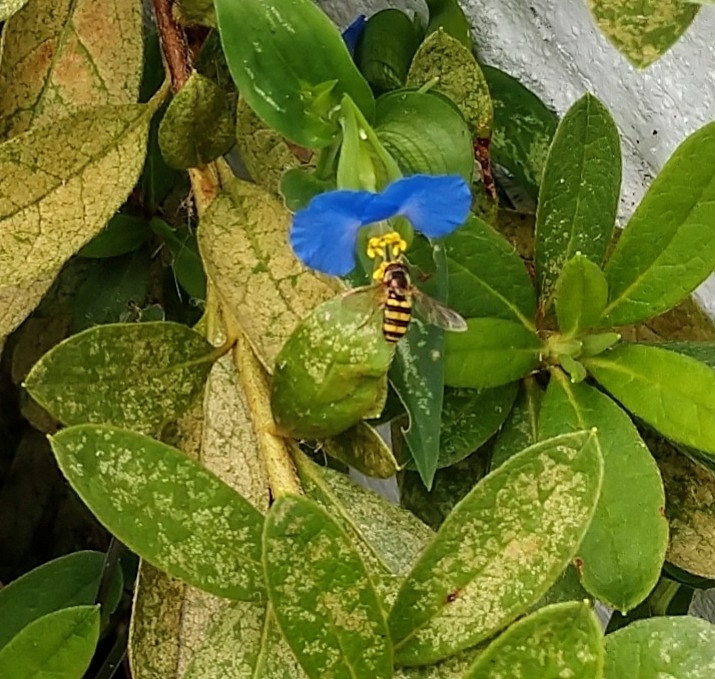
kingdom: Animalia
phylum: Arthropoda
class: Insecta
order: Diptera
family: Syrphidae
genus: Eupeodes
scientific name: Eupeodes
